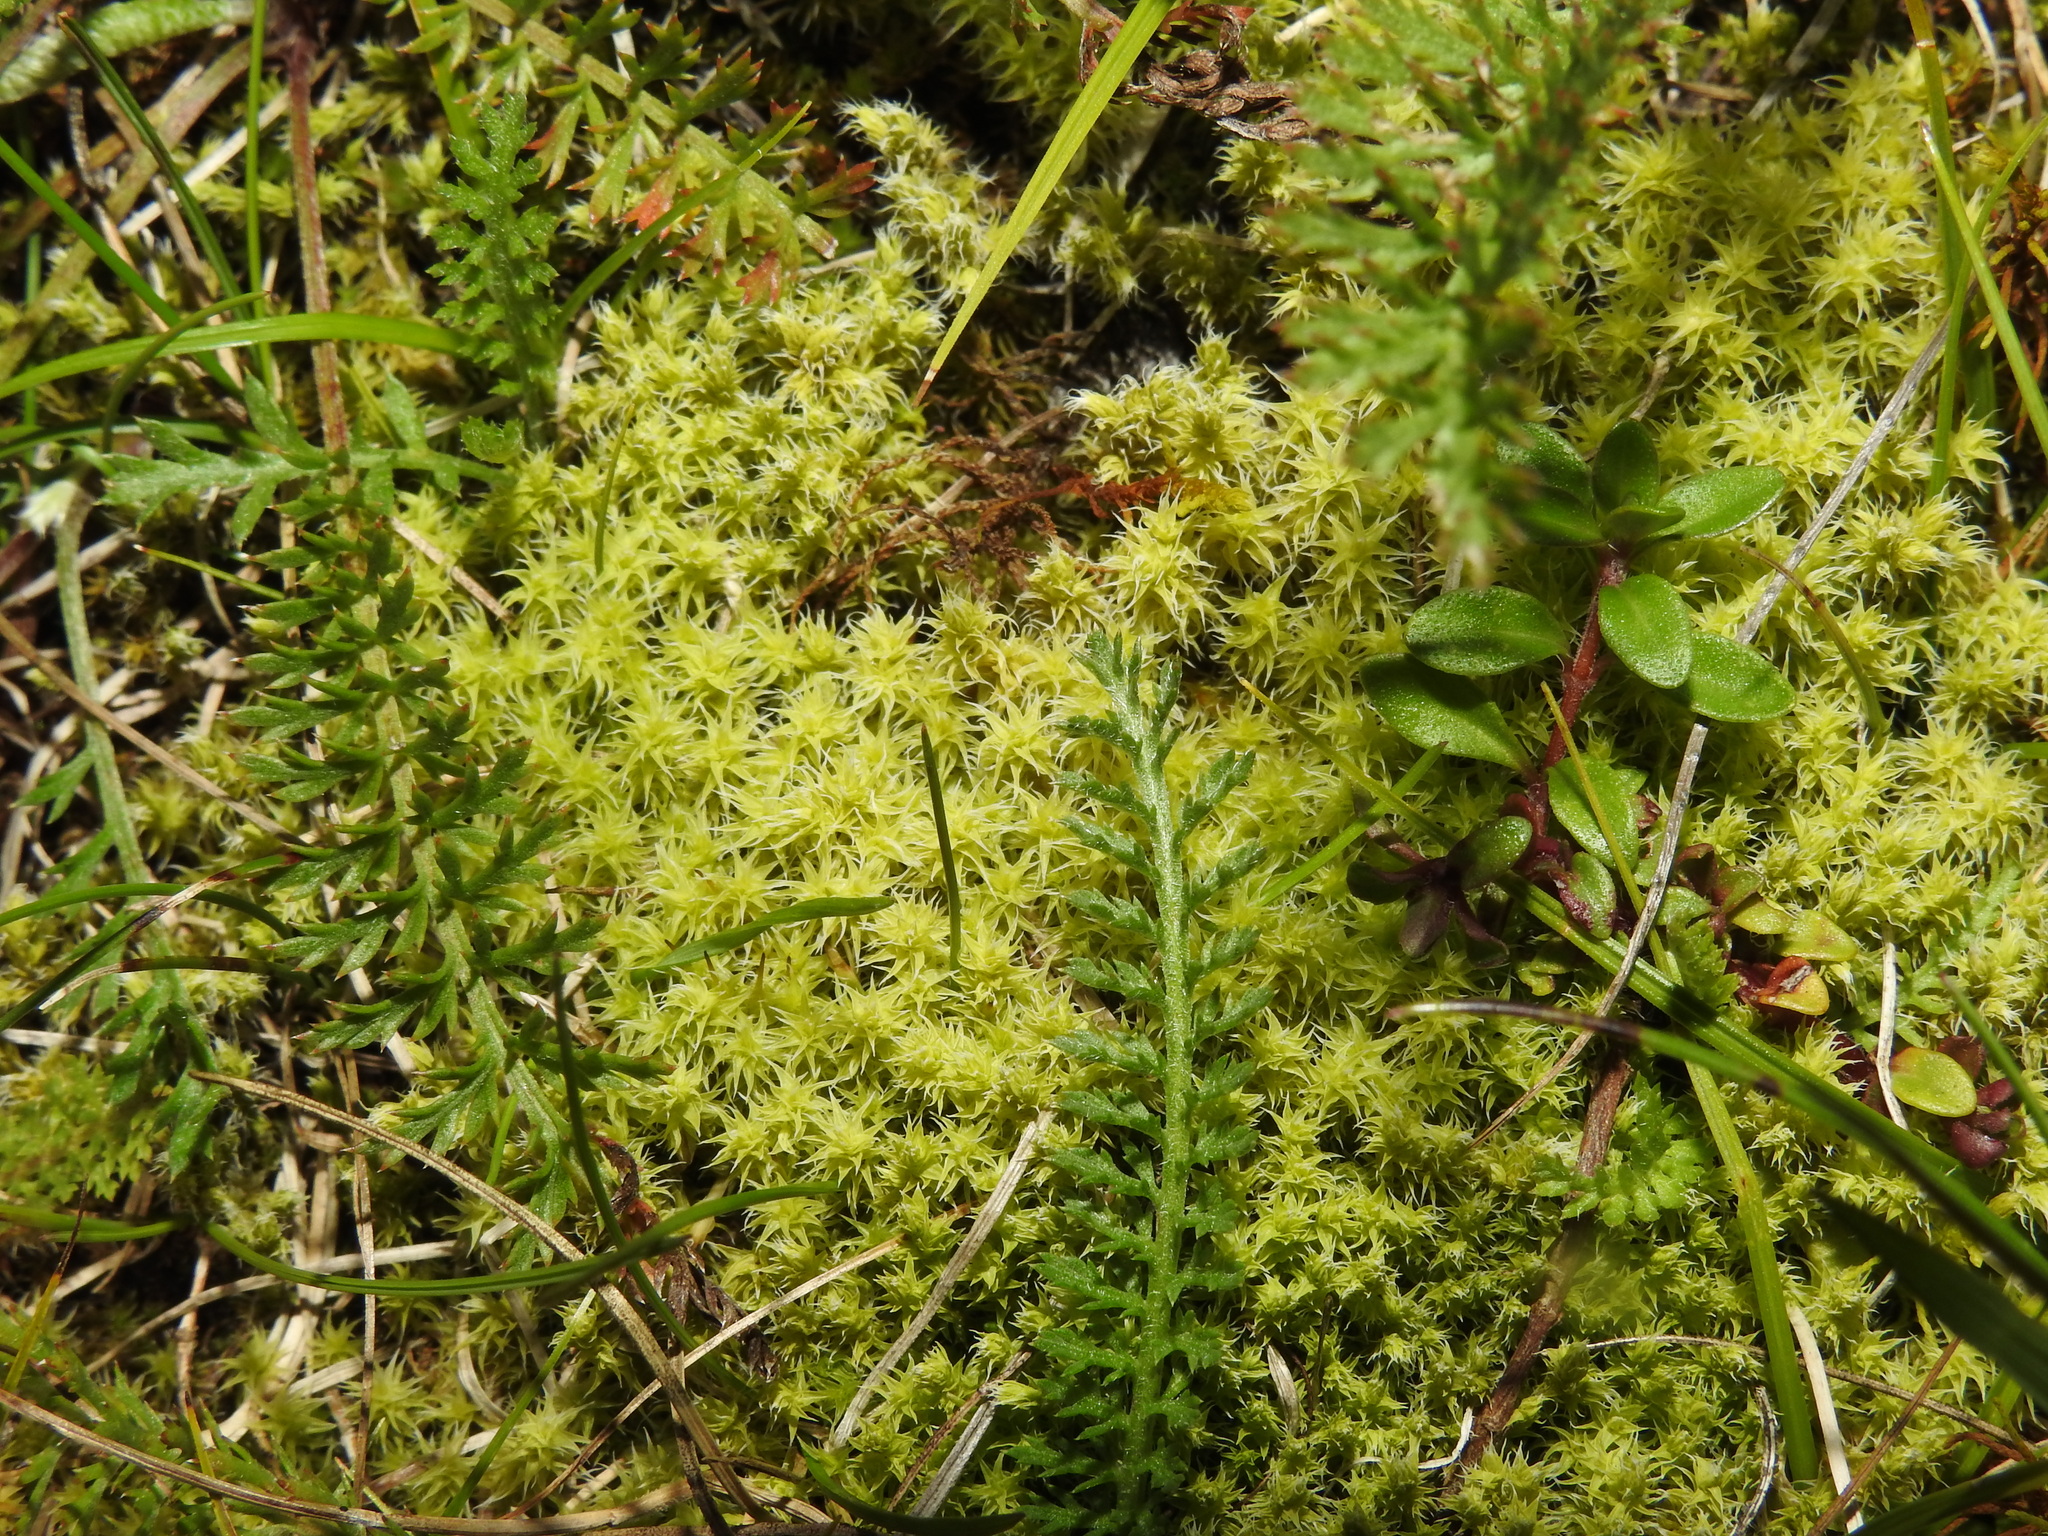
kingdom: Plantae
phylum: Bryophyta
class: Bryopsida
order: Grimmiales
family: Grimmiaceae
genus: Niphotrichum
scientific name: Niphotrichum canescens
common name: Hoary fringe-moss
